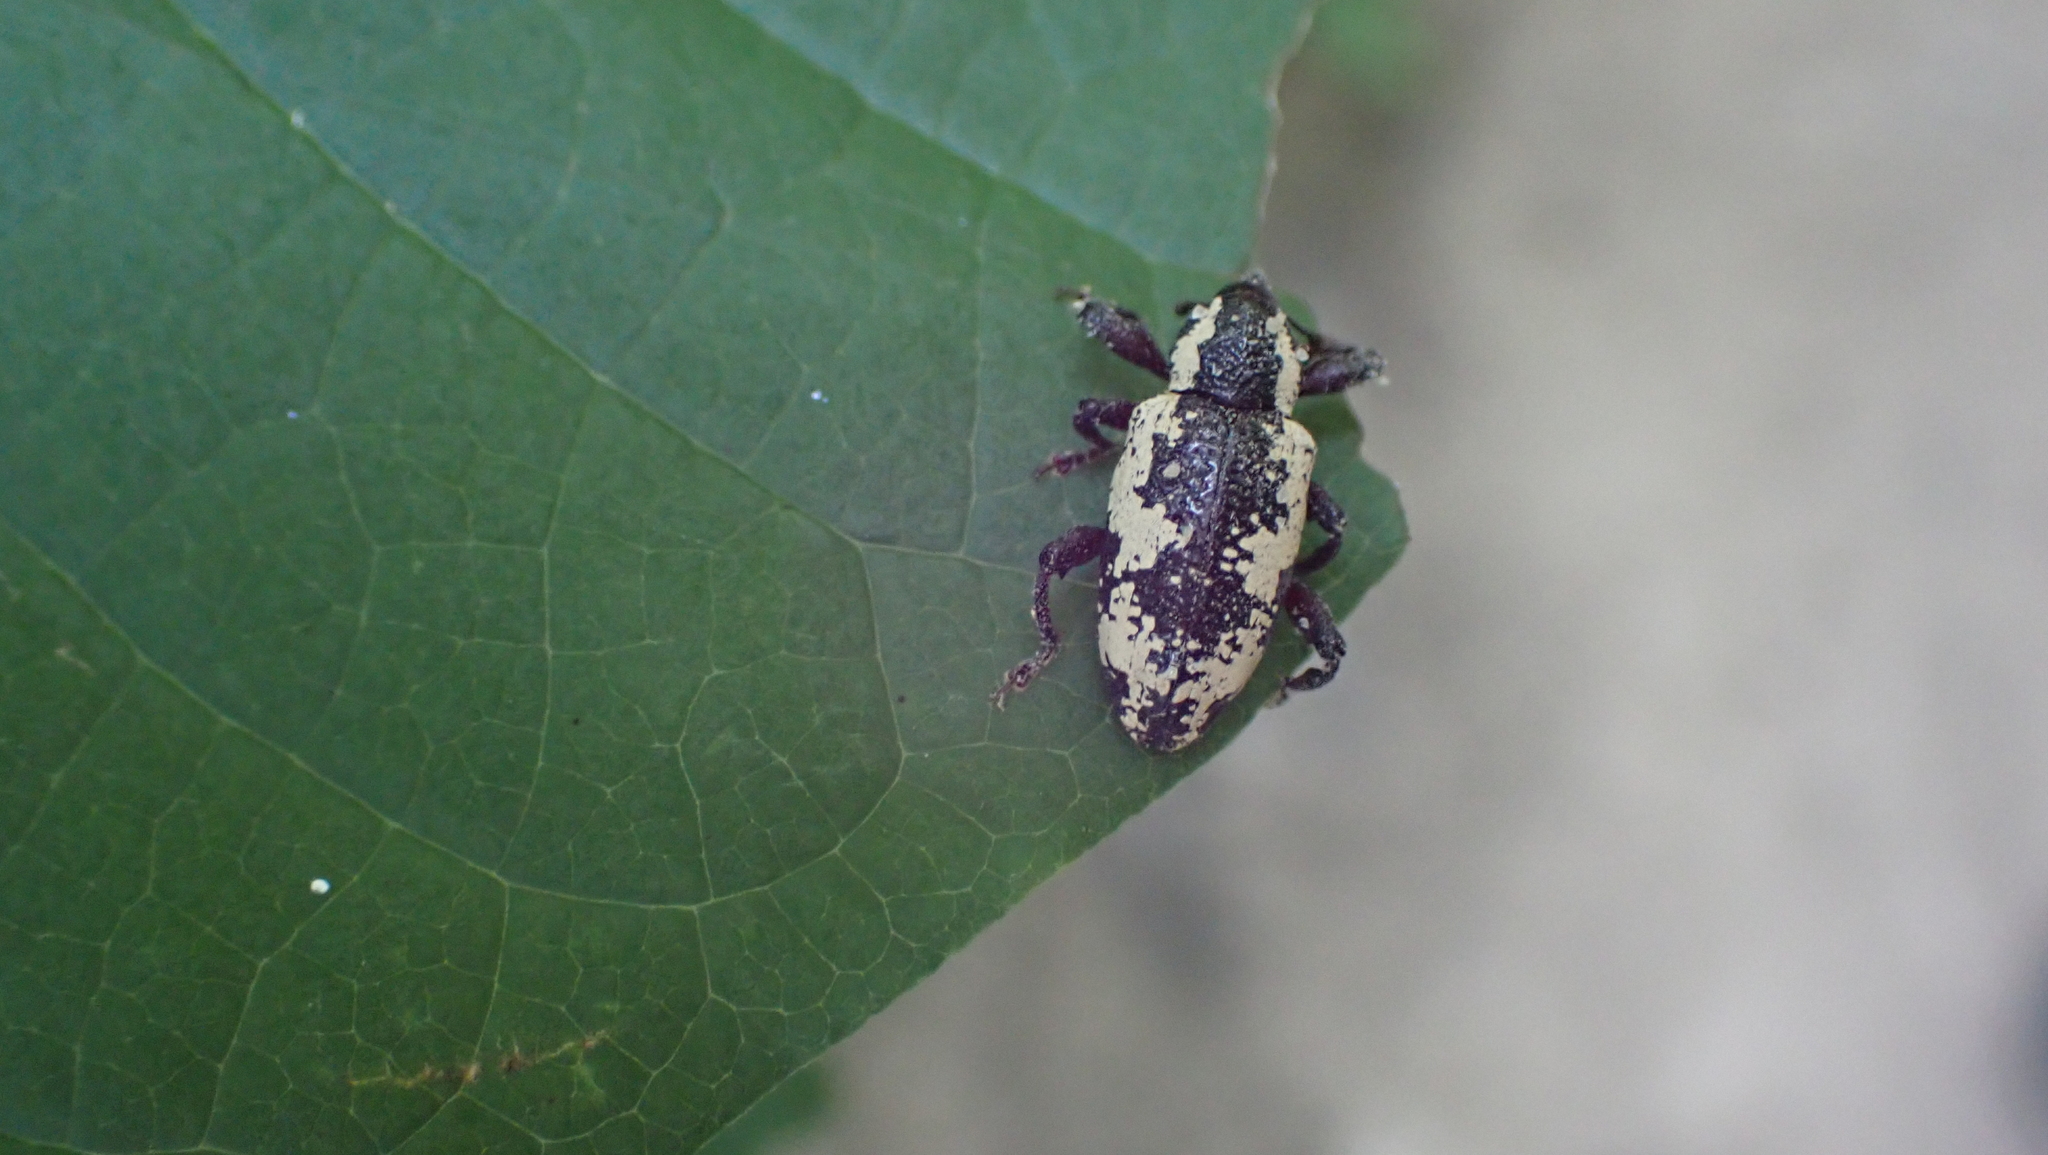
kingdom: Animalia
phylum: Arthropoda
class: Insecta
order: Coleoptera
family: Curculionidae
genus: Heilipus
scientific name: Heilipus squamosus
